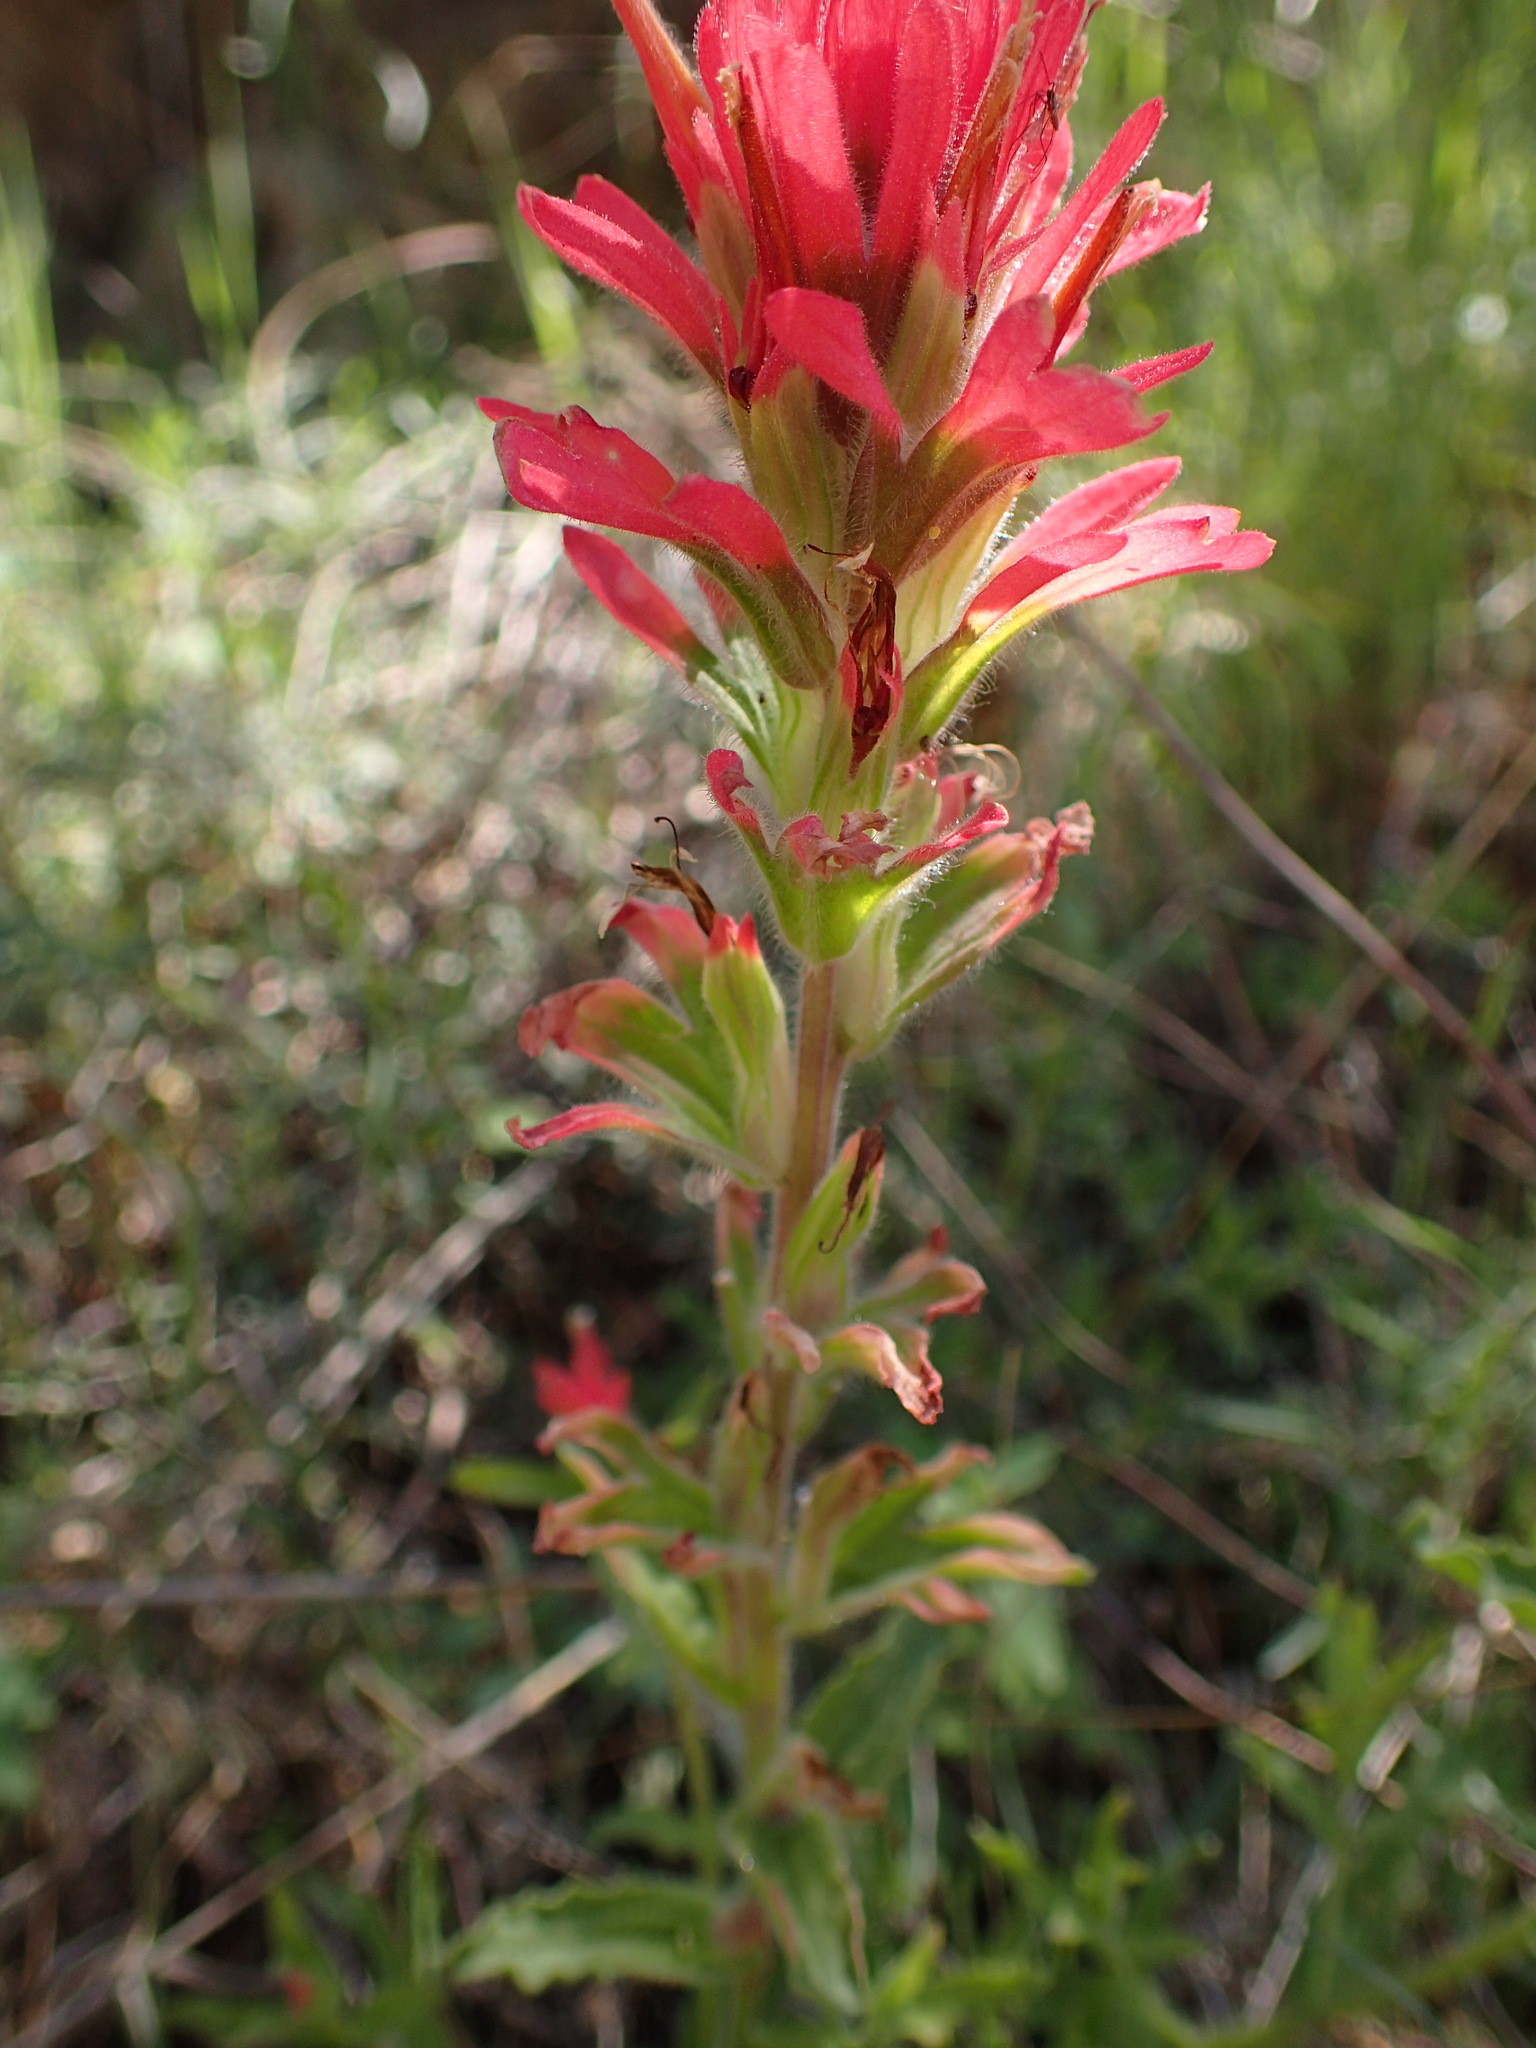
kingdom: Plantae
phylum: Tracheophyta
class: Magnoliopsida
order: Lamiales
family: Orobanchaceae
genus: Castilleja
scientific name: Castilleja affinis
